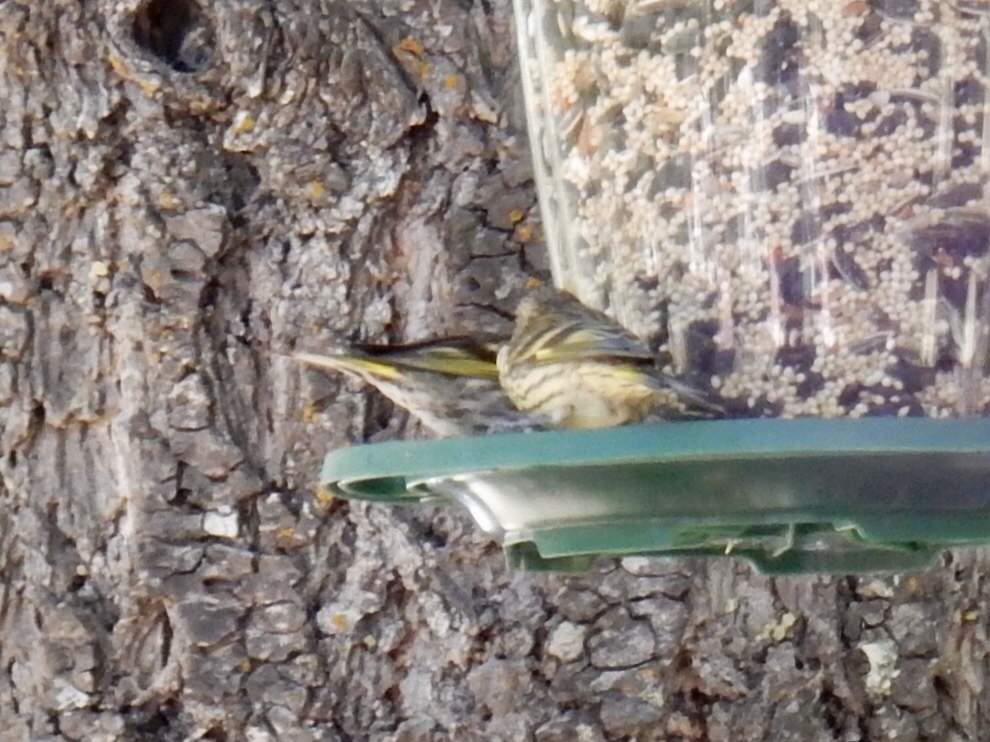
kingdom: Animalia
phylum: Chordata
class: Aves
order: Passeriformes
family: Fringillidae
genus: Spinus
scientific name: Spinus pinus
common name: Pine siskin
